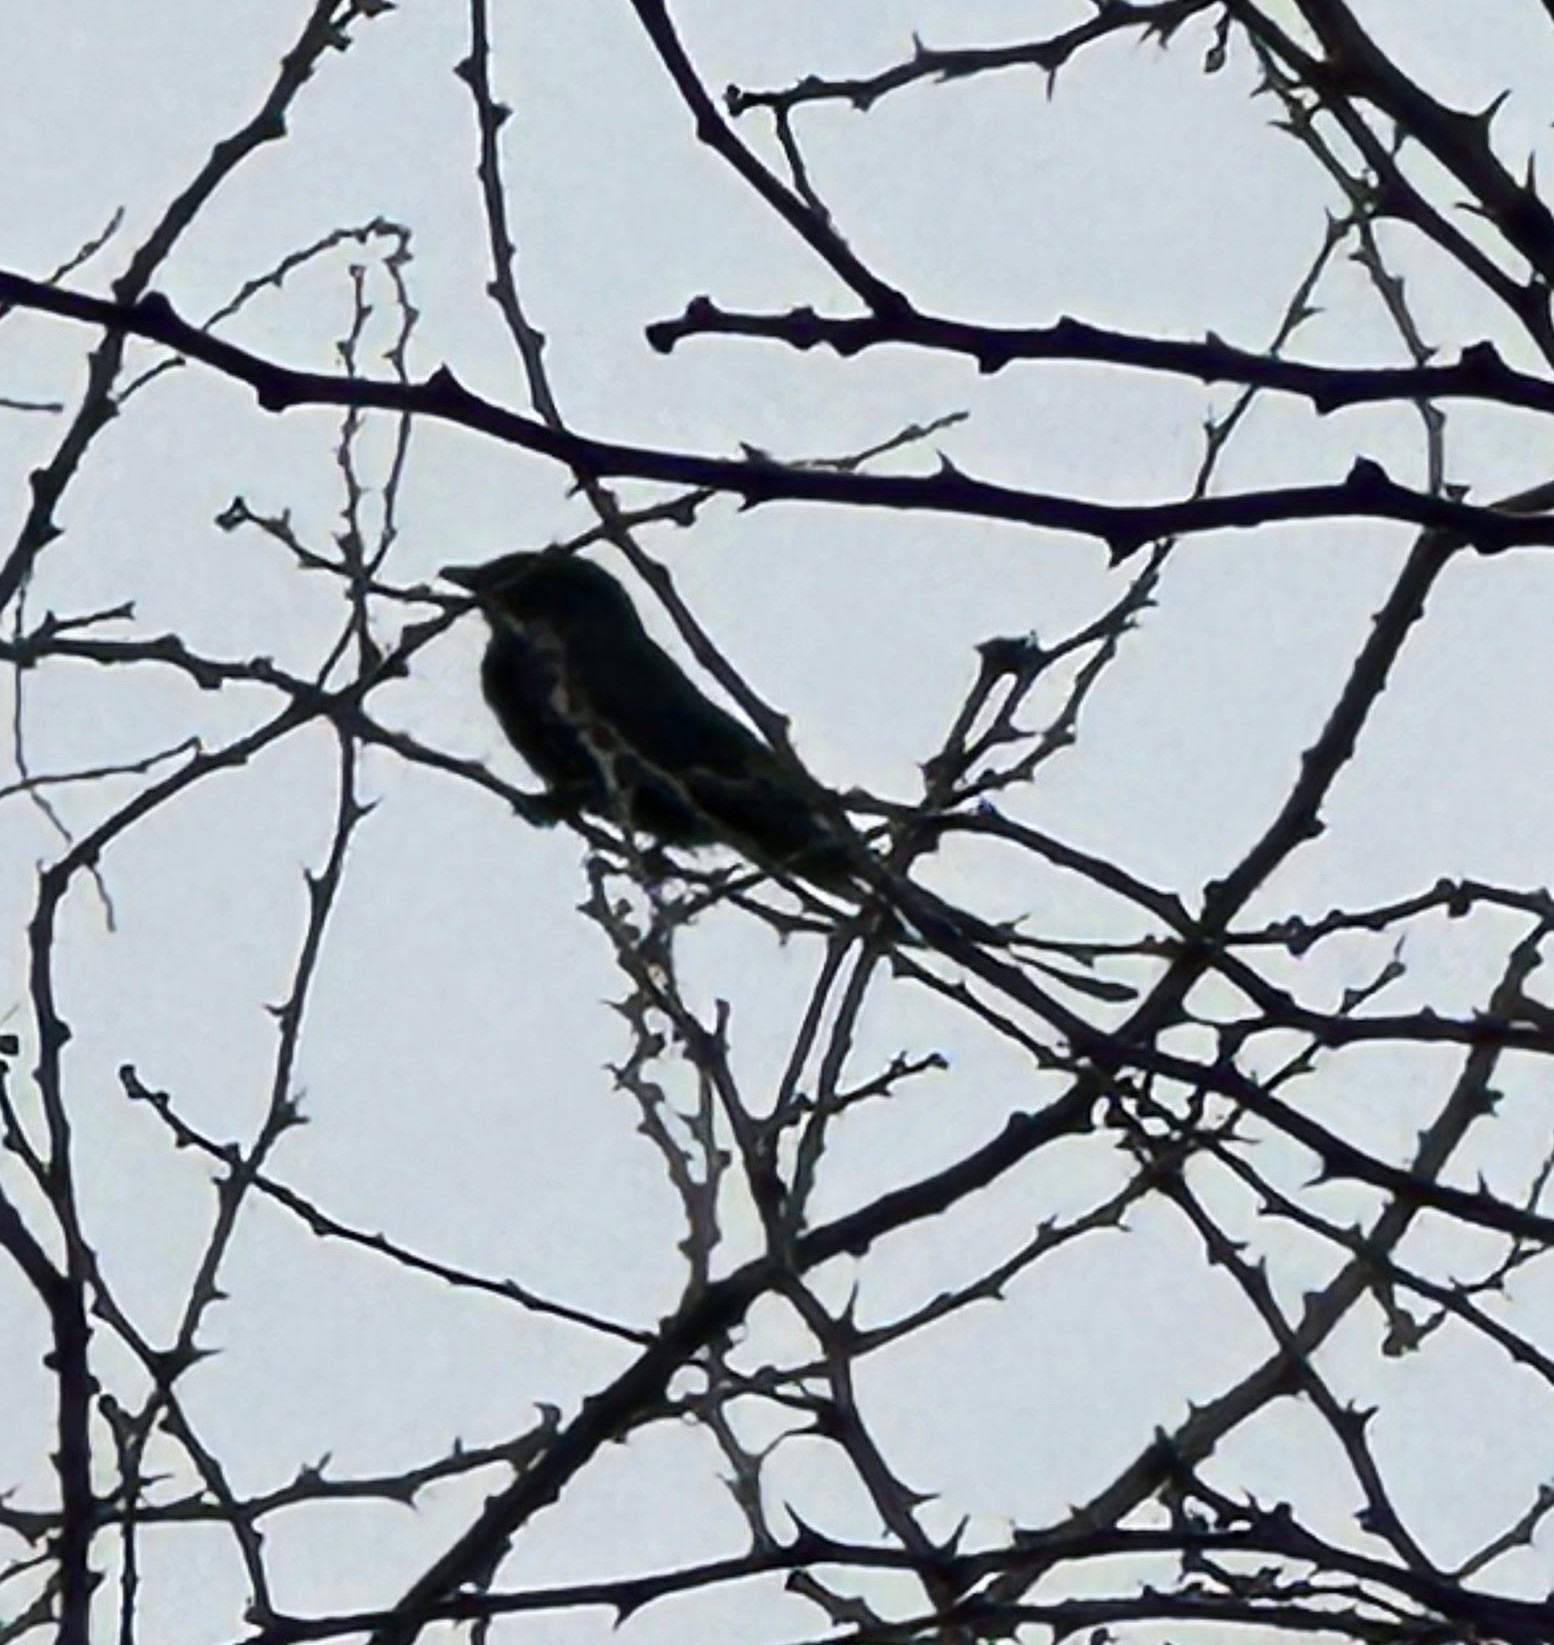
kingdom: Animalia
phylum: Chordata
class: Aves
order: Passeriformes
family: Dicruridae
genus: Dicrurus
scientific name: Dicrurus macrocercus
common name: Black drongo
